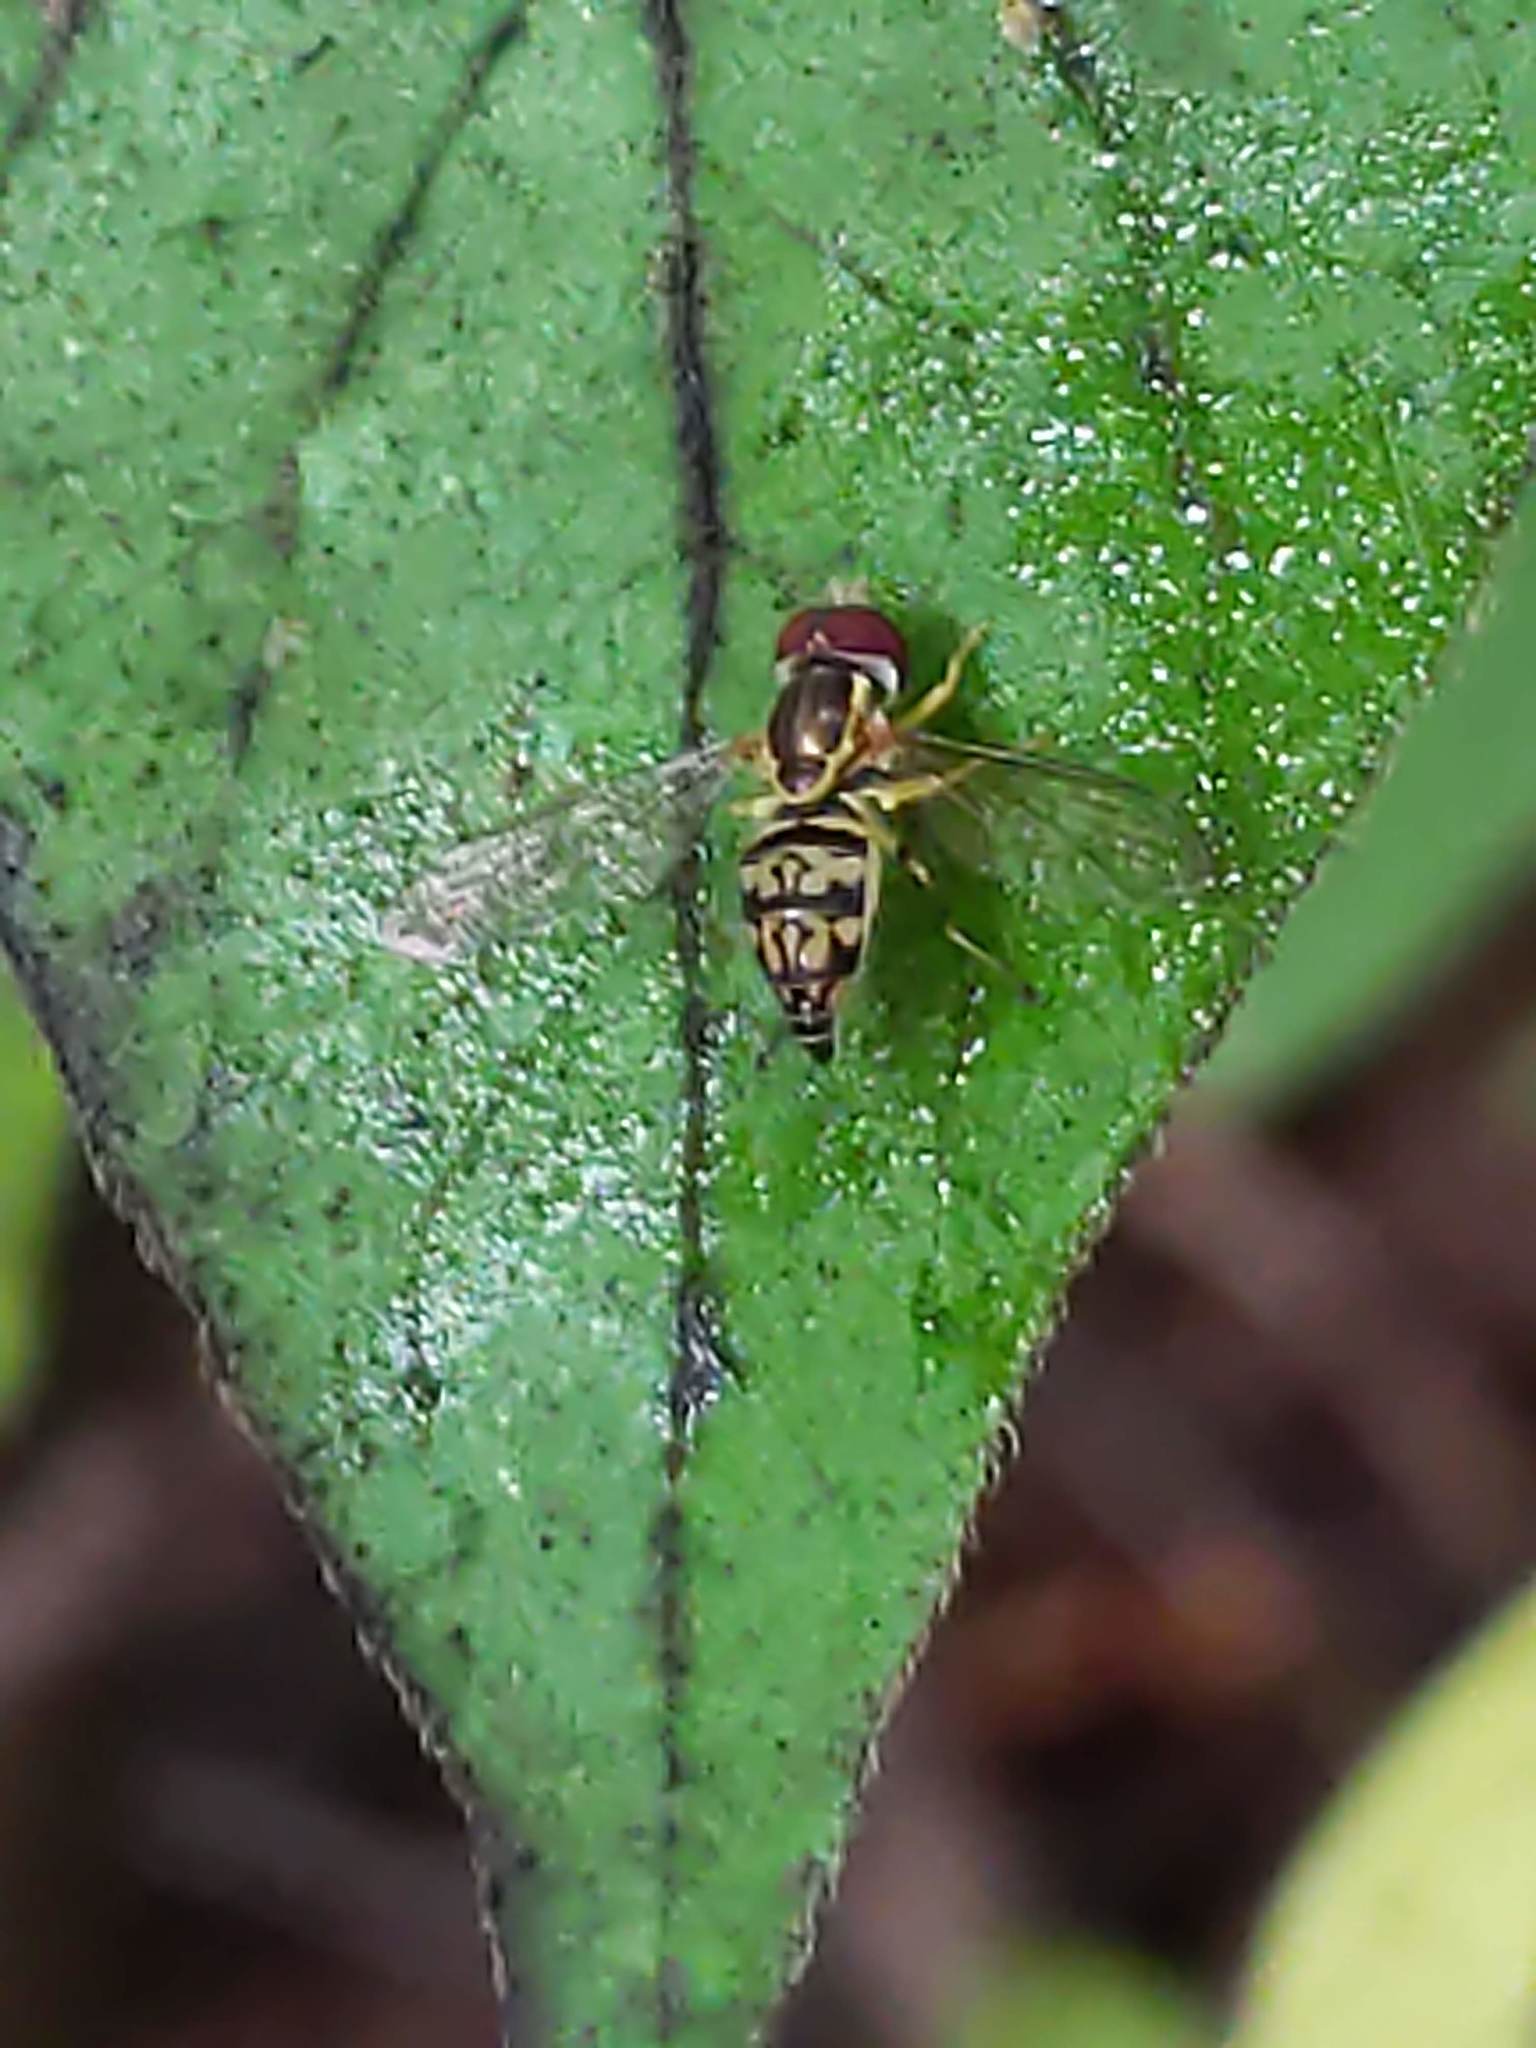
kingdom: Animalia
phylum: Arthropoda
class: Insecta
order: Diptera
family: Syrphidae
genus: Toxomerus
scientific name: Toxomerus geminatus
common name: Eastern calligrapher
